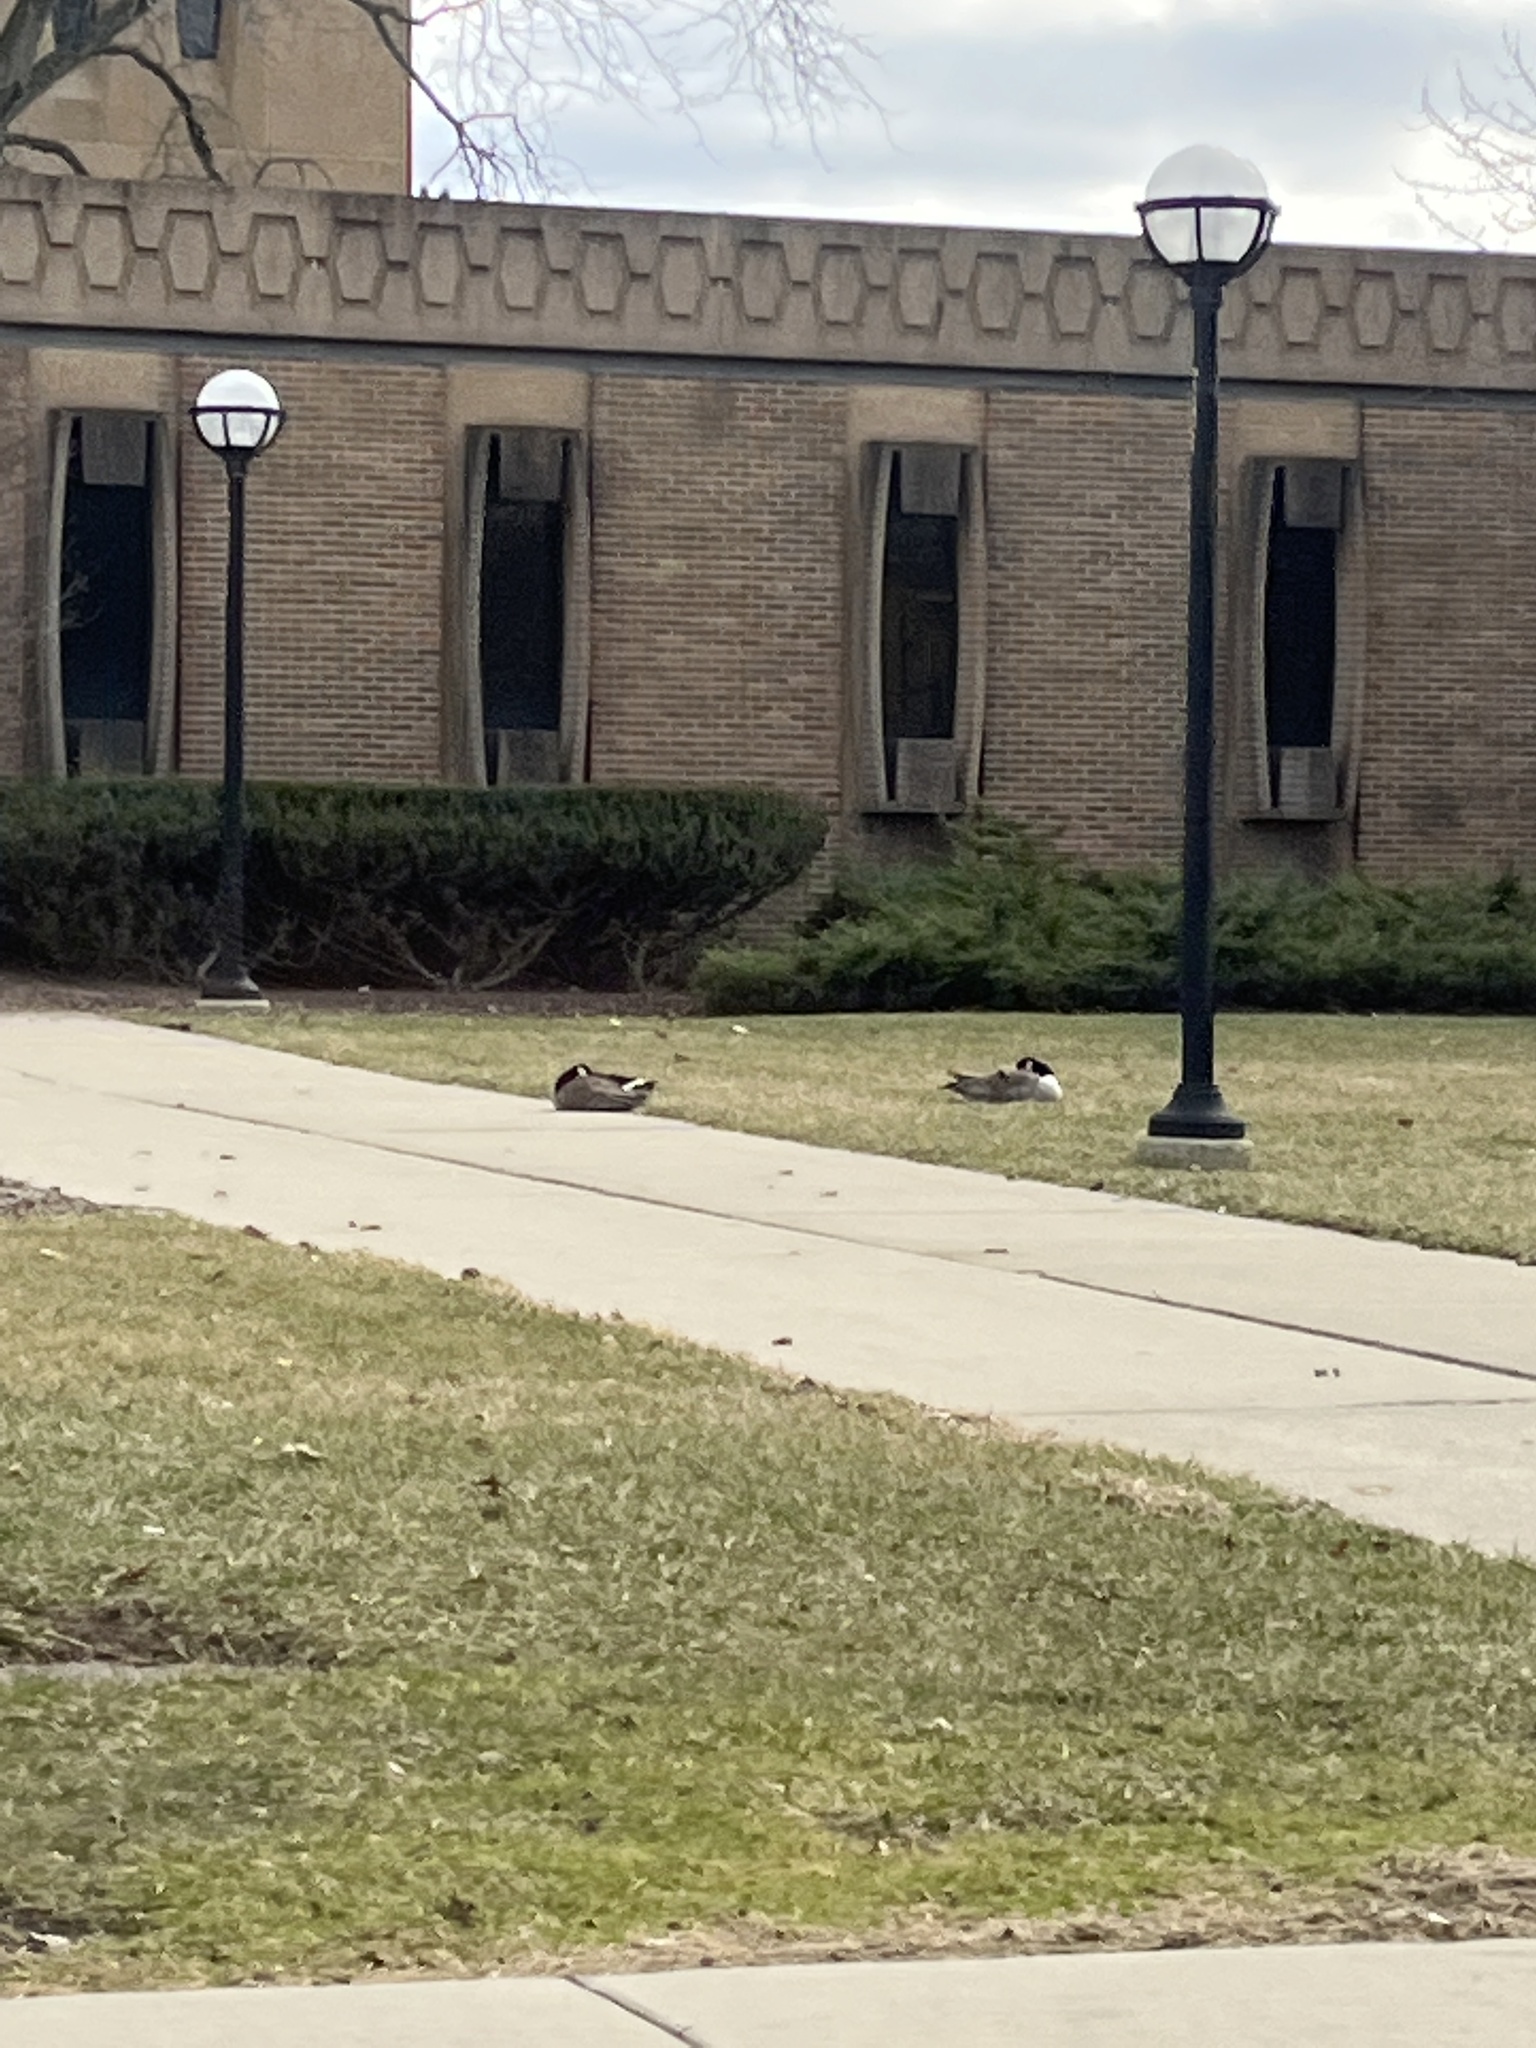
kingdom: Animalia
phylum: Chordata
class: Aves
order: Anseriformes
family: Anatidae
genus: Branta
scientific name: Branta canadensis
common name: Canada goose
